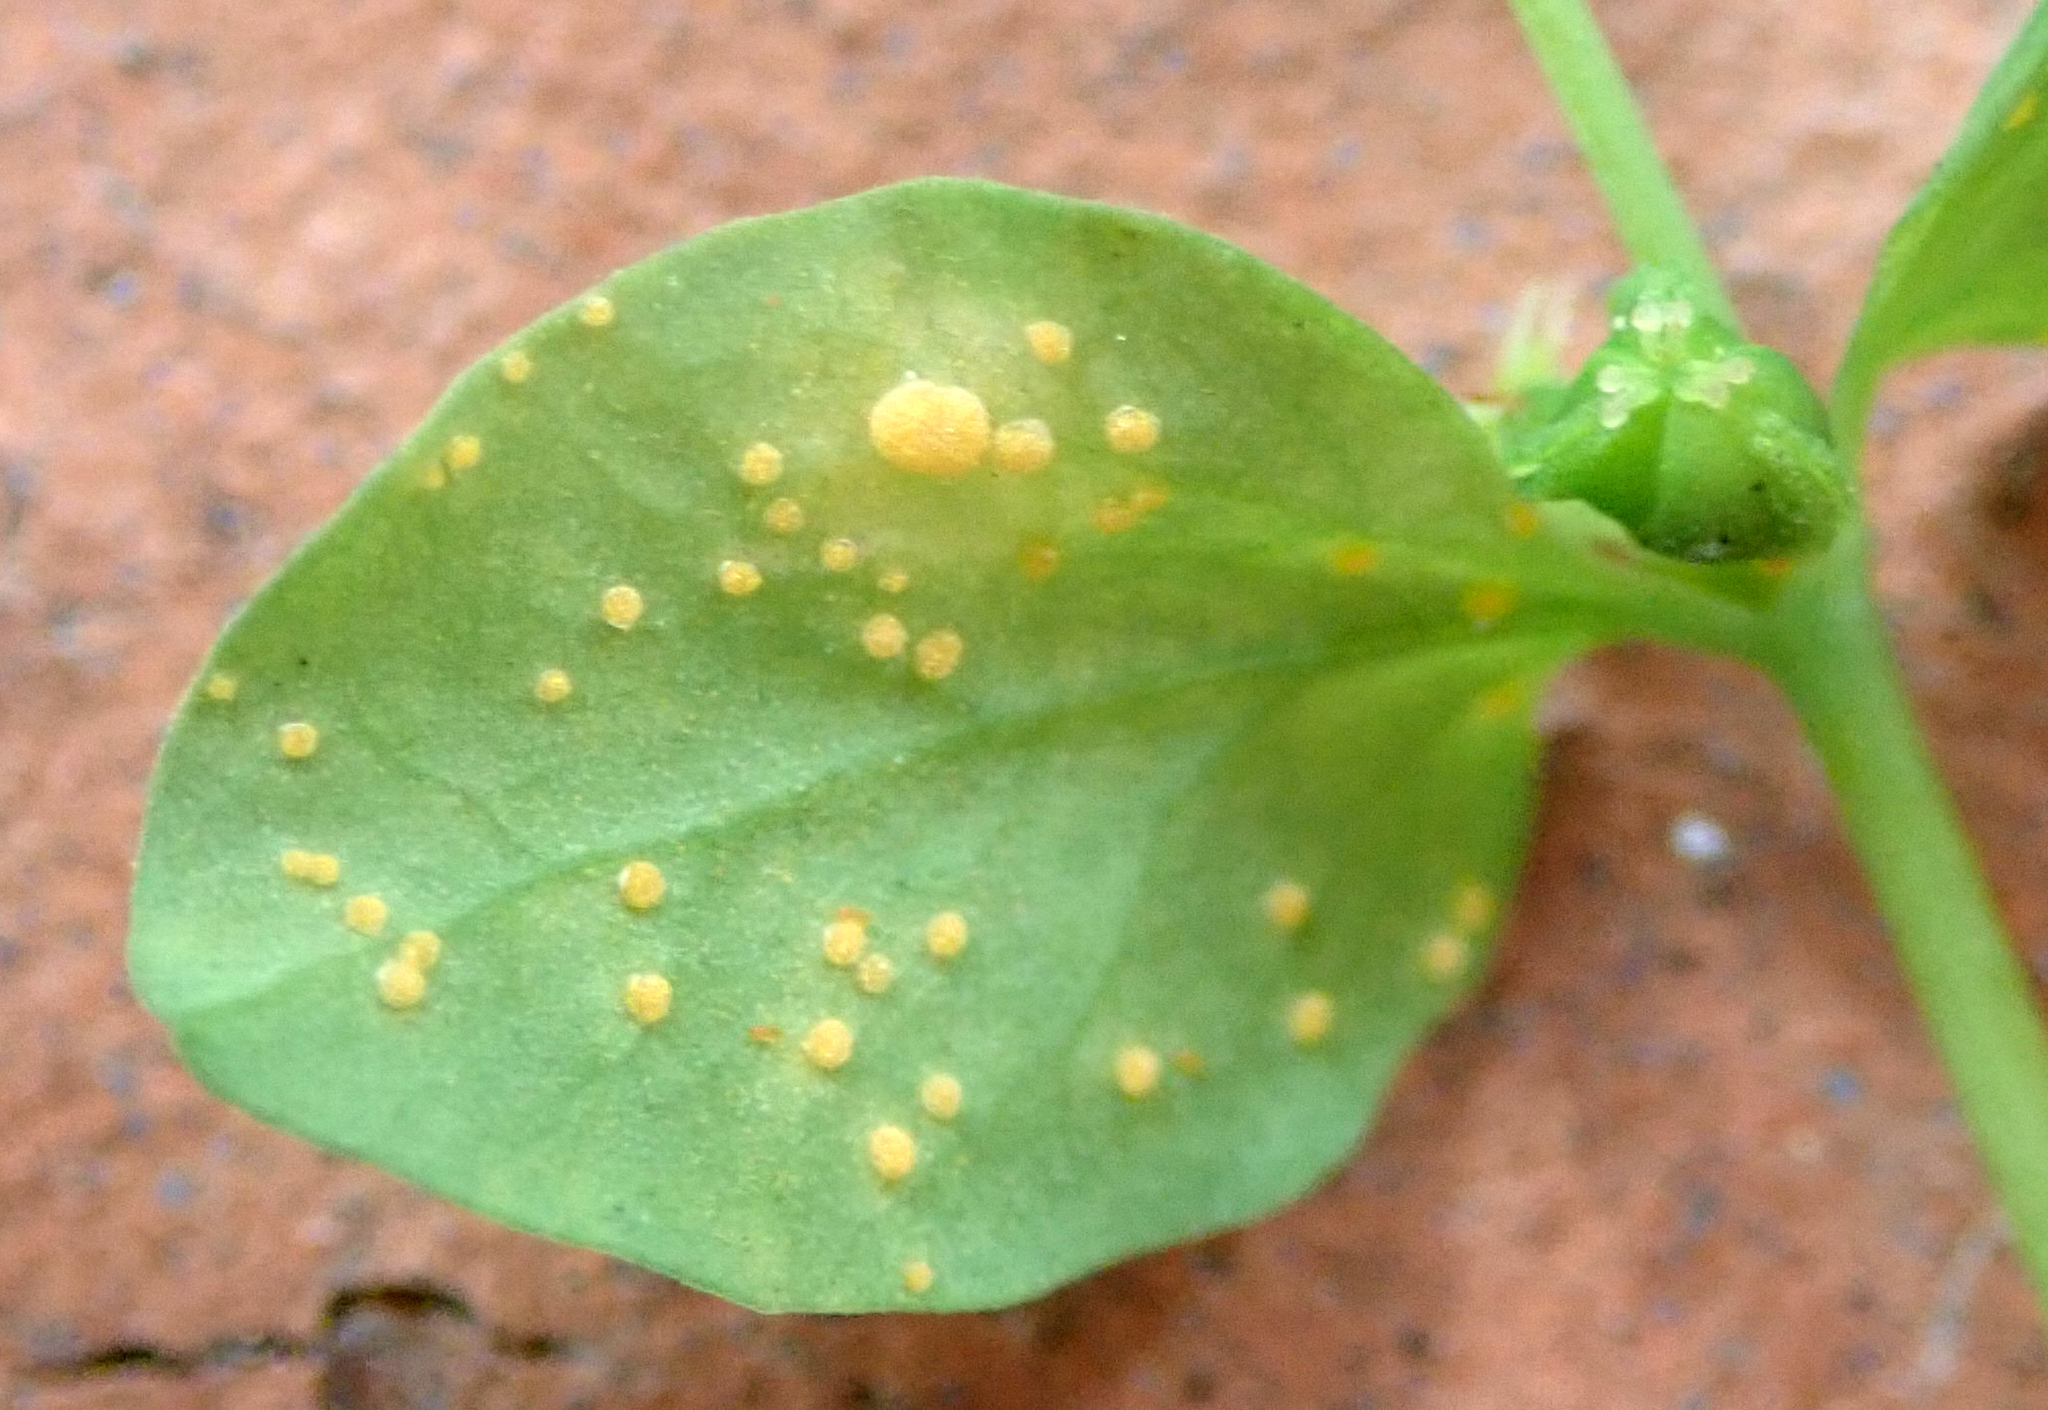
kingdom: Fungi
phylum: Basidiomycota
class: Pucciniomycetes
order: Pucciniales
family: Melampsoraceae
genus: Melampsora
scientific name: Melampsora euphorbiae
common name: Spurge rust
